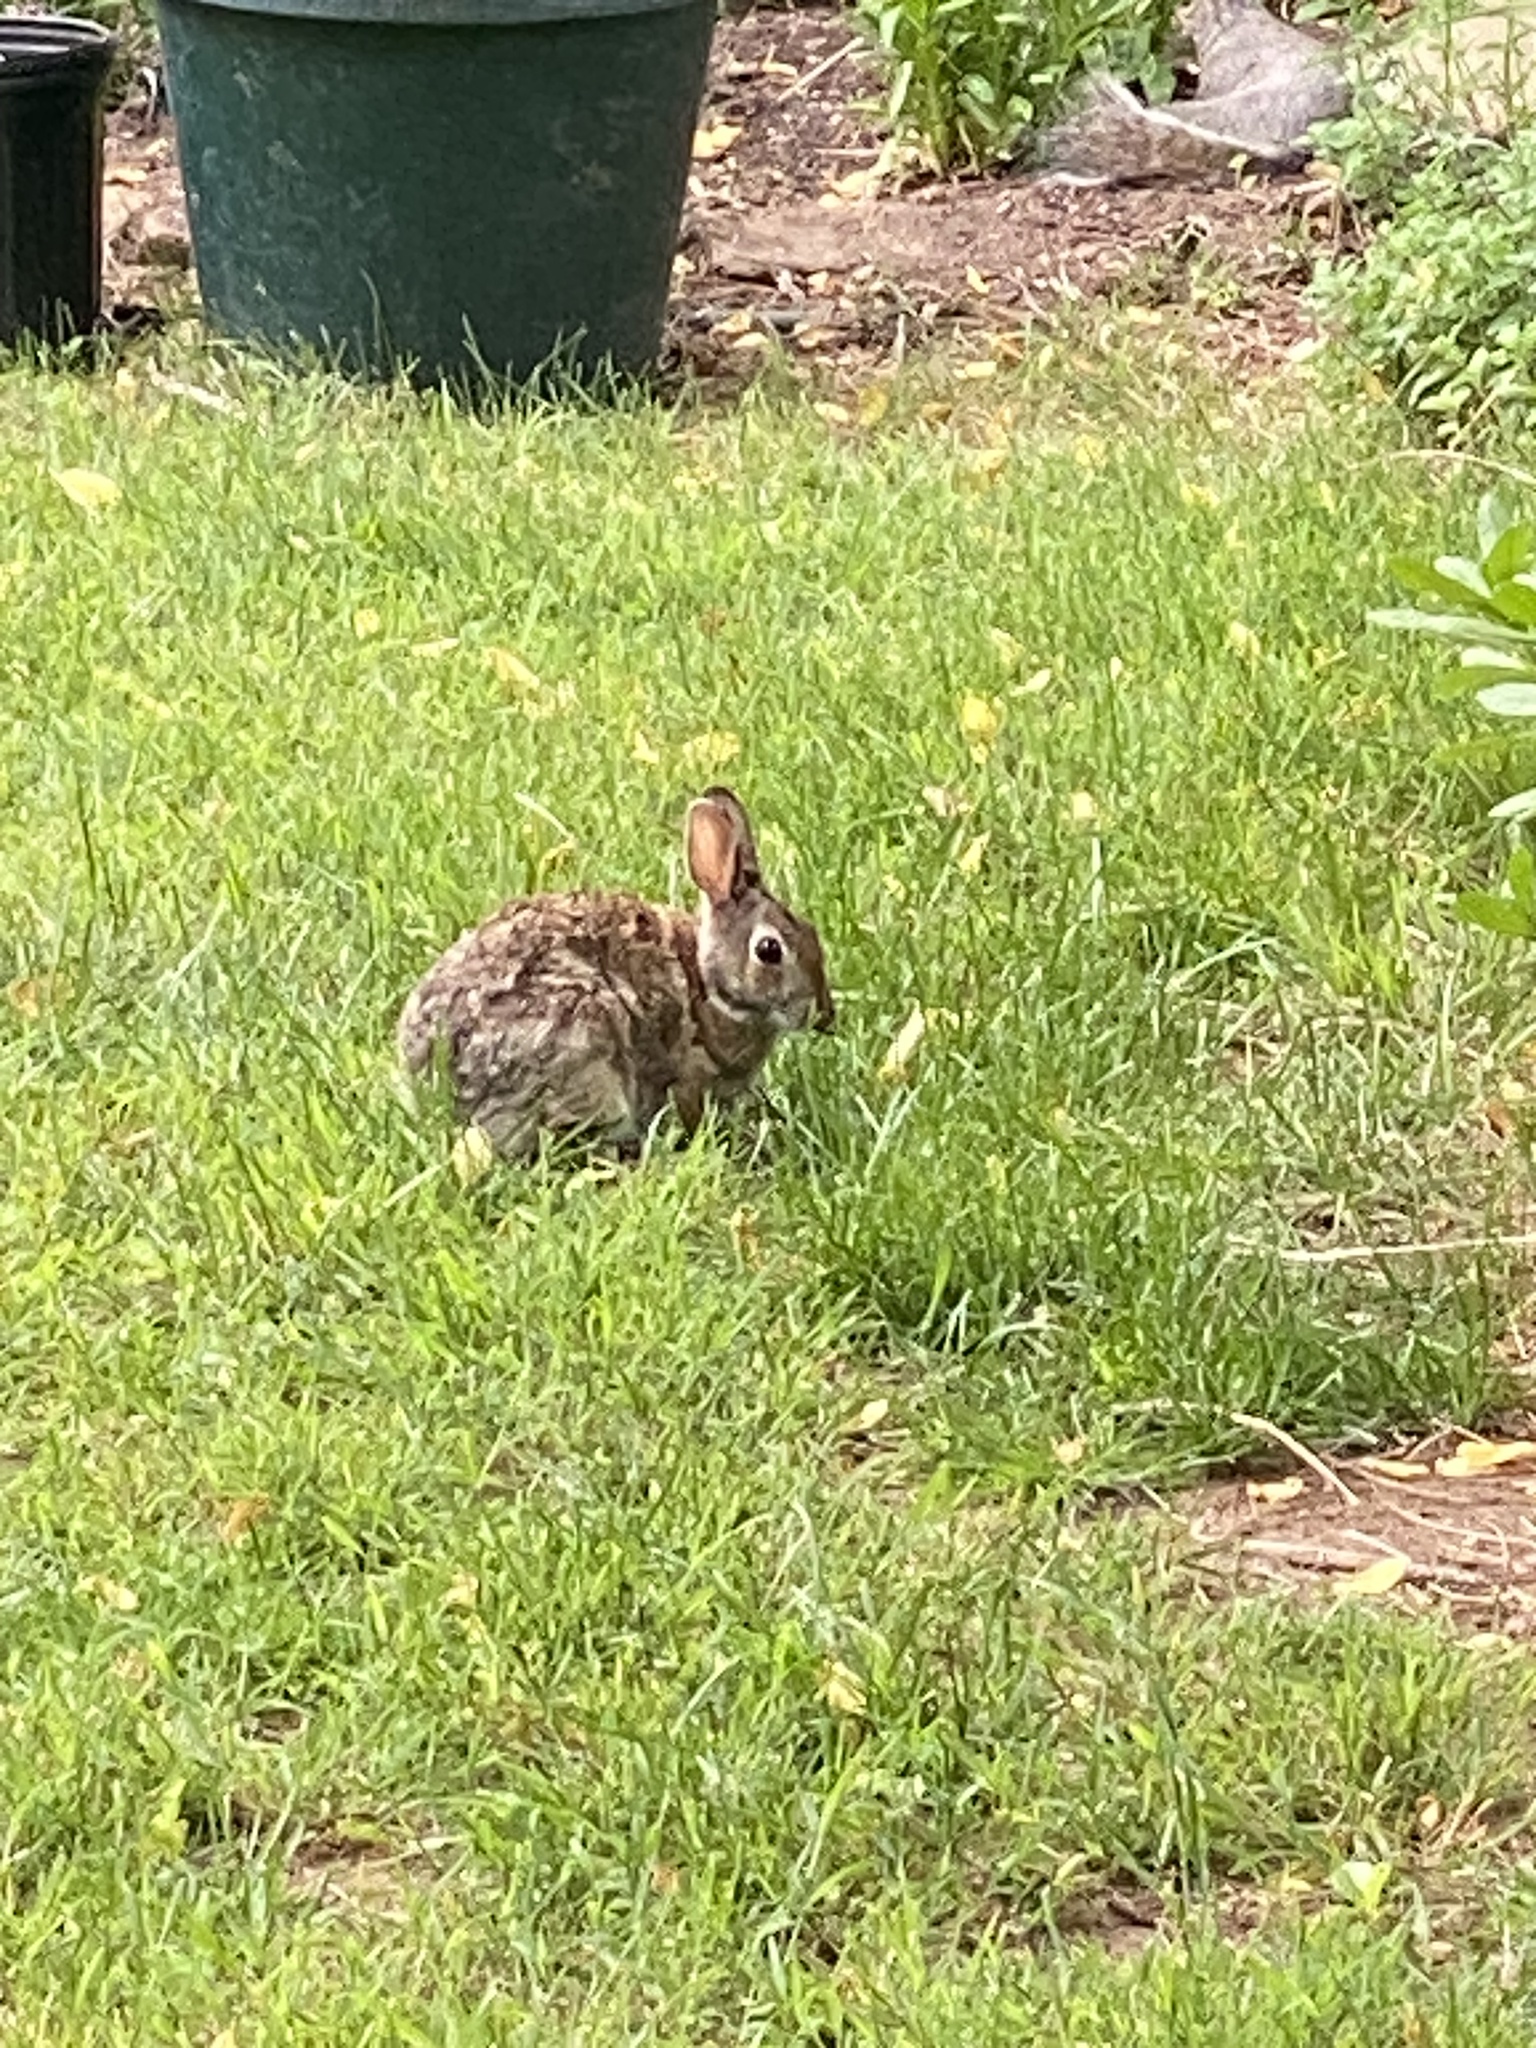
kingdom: Animalia
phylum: Chordata
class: Mammalia
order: Lagomorpha
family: Leporidae
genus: Sylvilagus
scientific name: Sylvilagus floridanus
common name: Eastern cottontail
